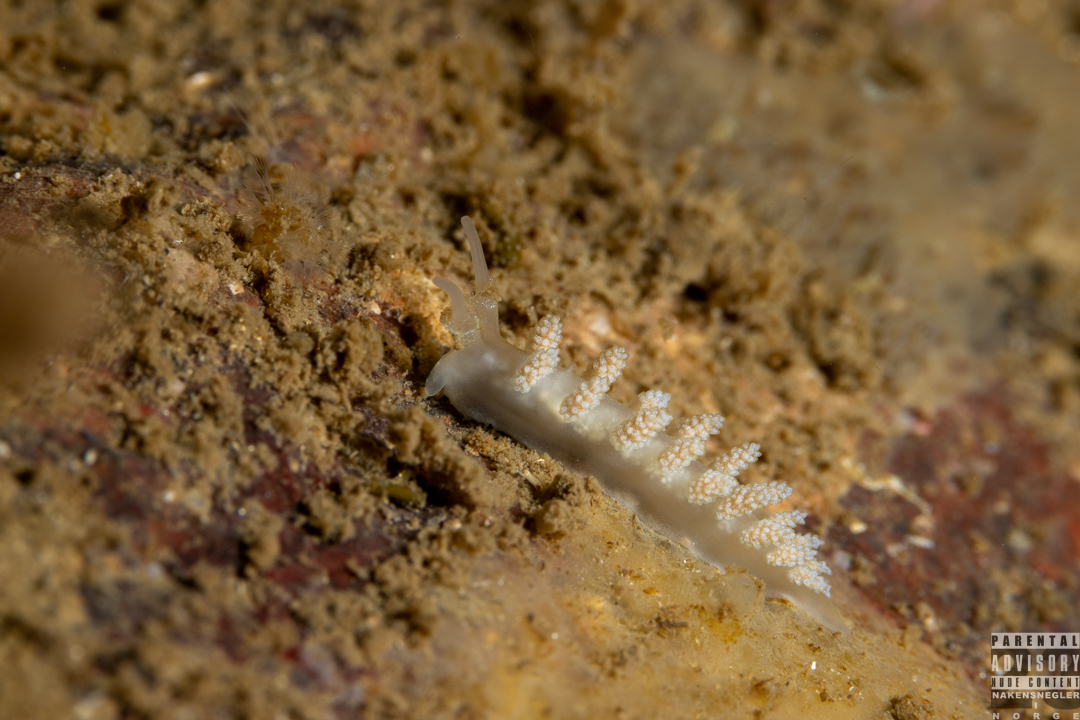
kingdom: Animalia
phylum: Mollusca
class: Gastropoda
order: Nudibranchia
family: Dotidae
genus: Doto
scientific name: Doto fragilis
